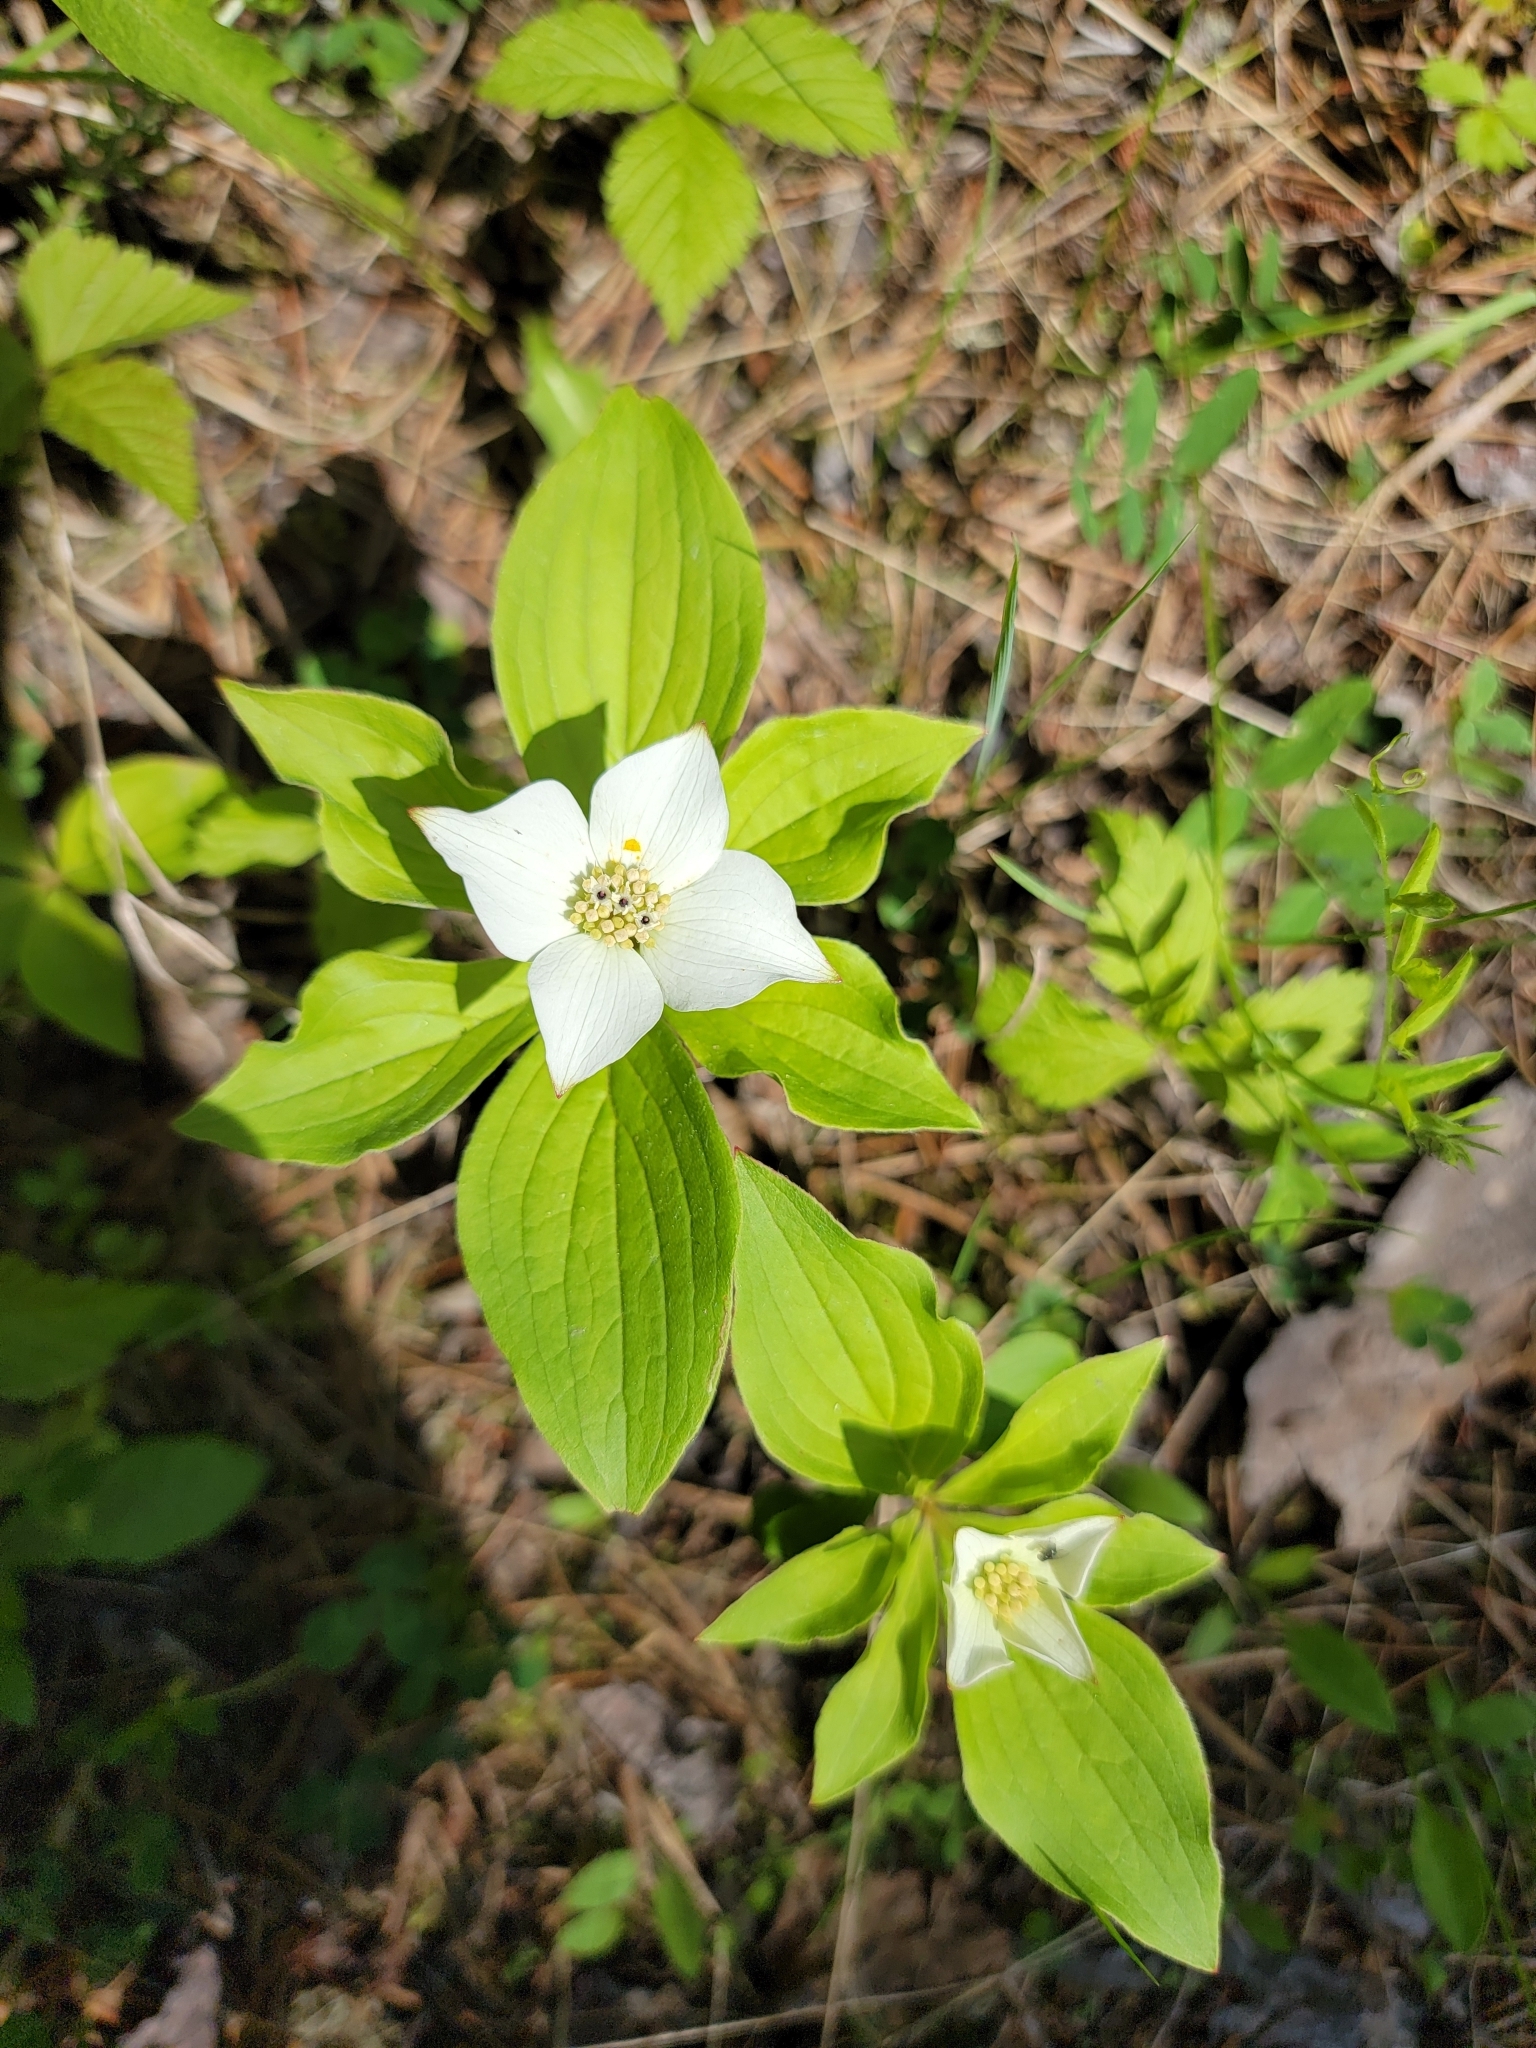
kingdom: Plantae
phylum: Tracheophyta
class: Magnoliopsida
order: Cornales
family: Cornaceae
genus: Cornus
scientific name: Cornus canadensis
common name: Creeping dogwood
